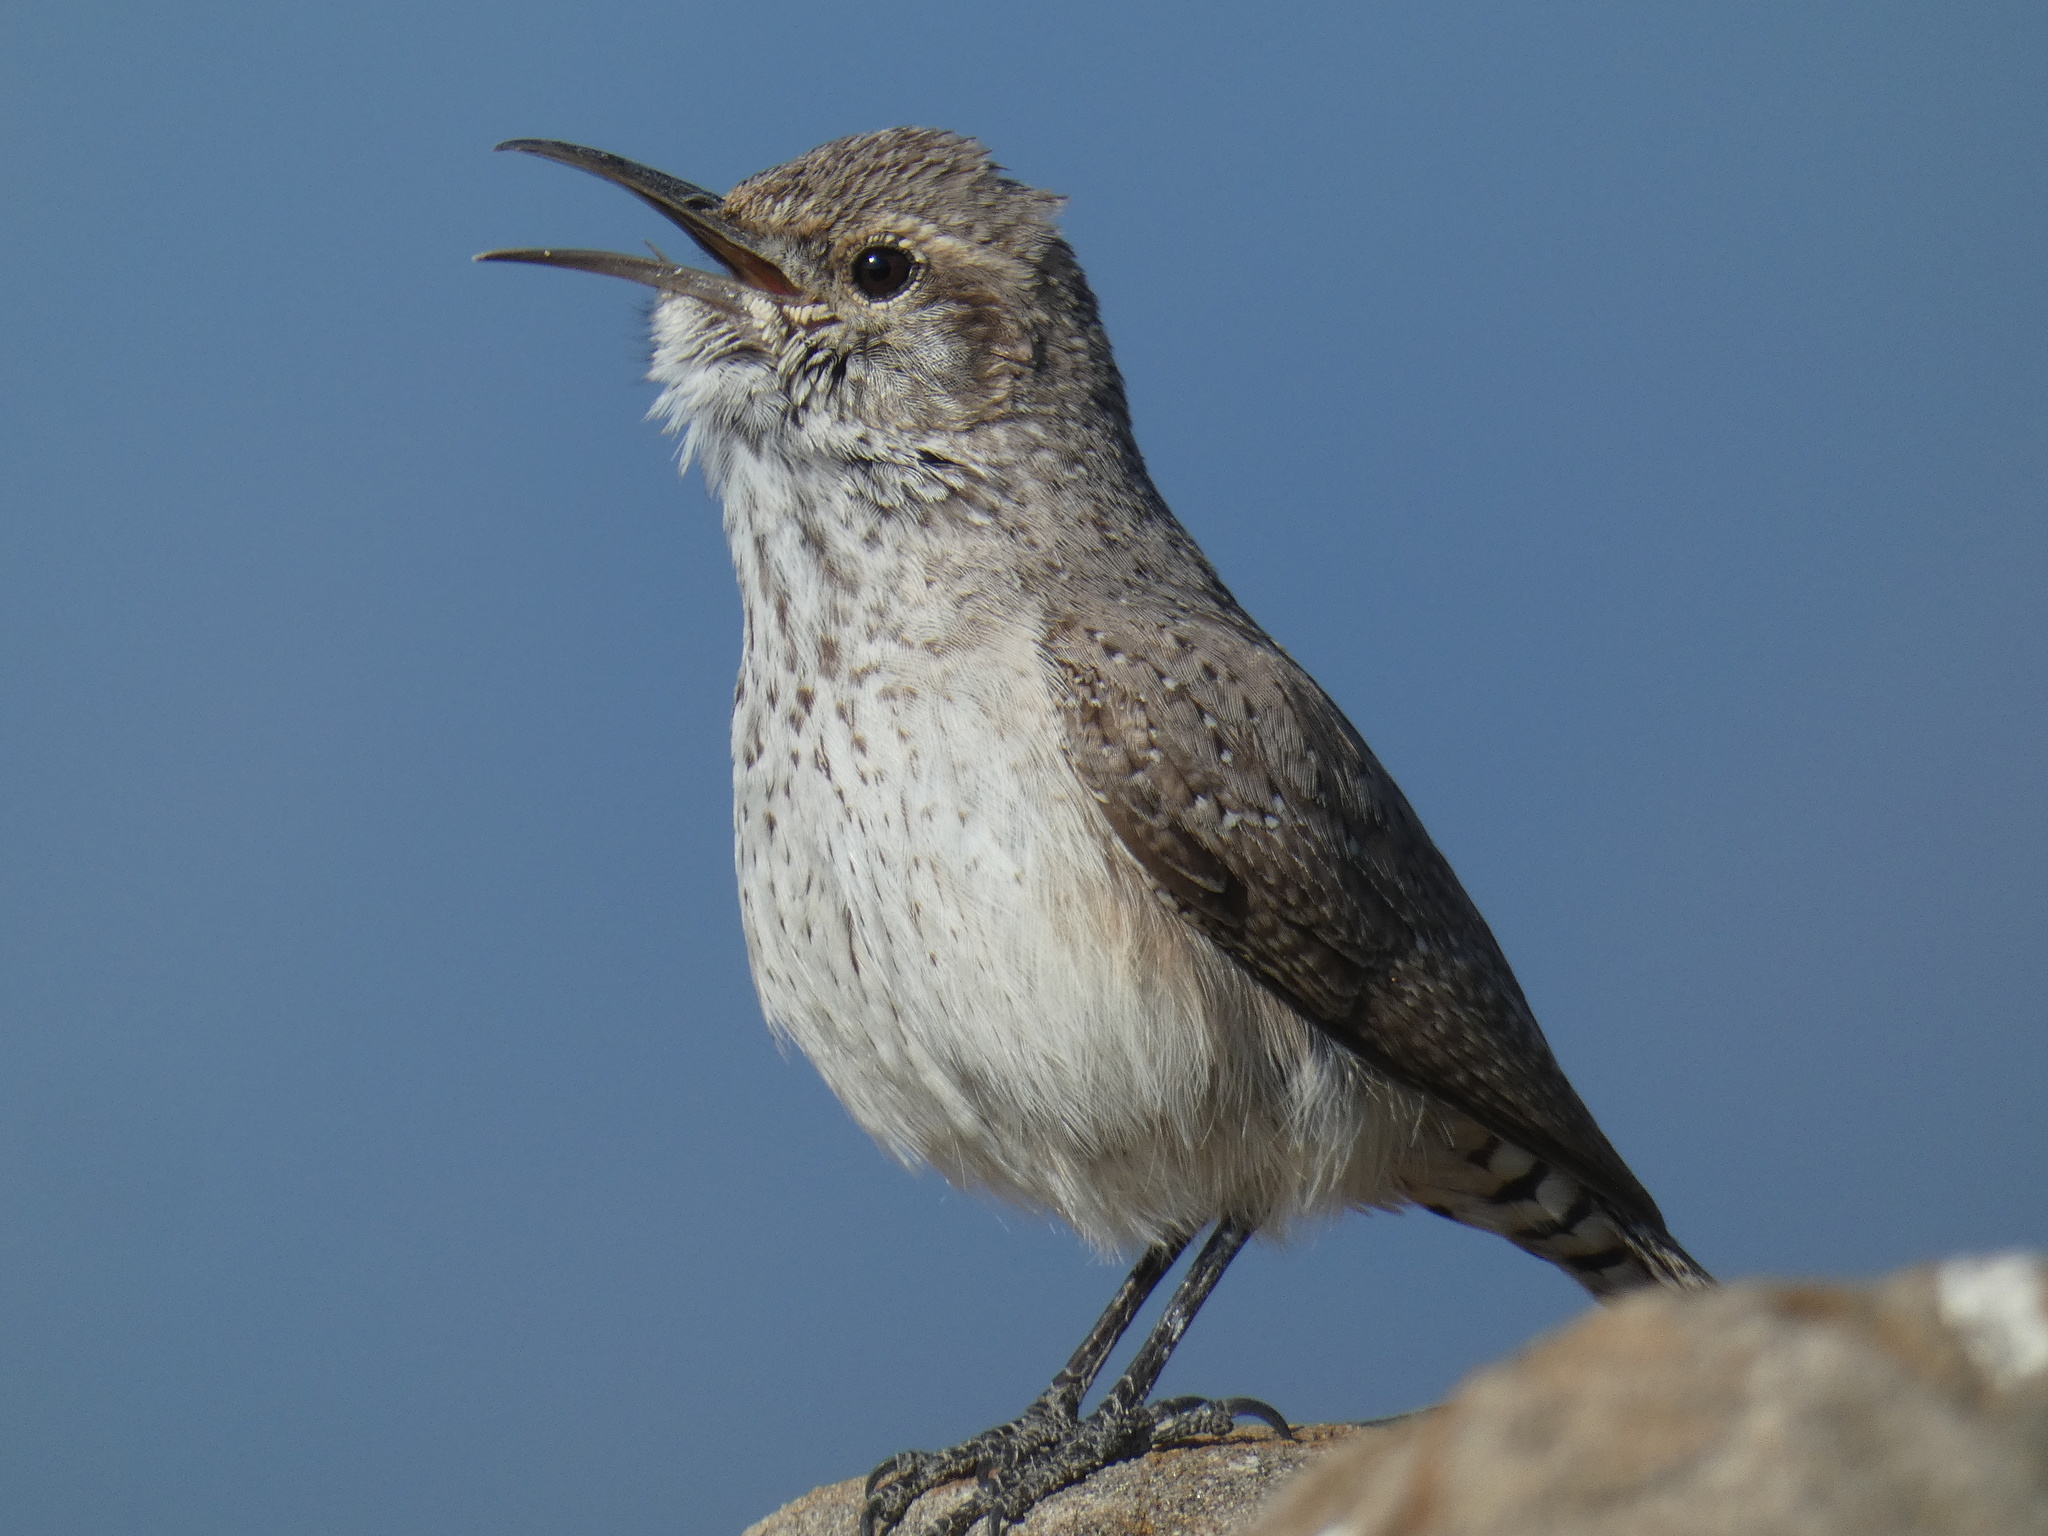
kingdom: Animalia
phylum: Chordata
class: Aves
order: Passeriformes
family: Troglodytidae
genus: Salpinctes
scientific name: Salpinctes obsoletus
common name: Rock wren
